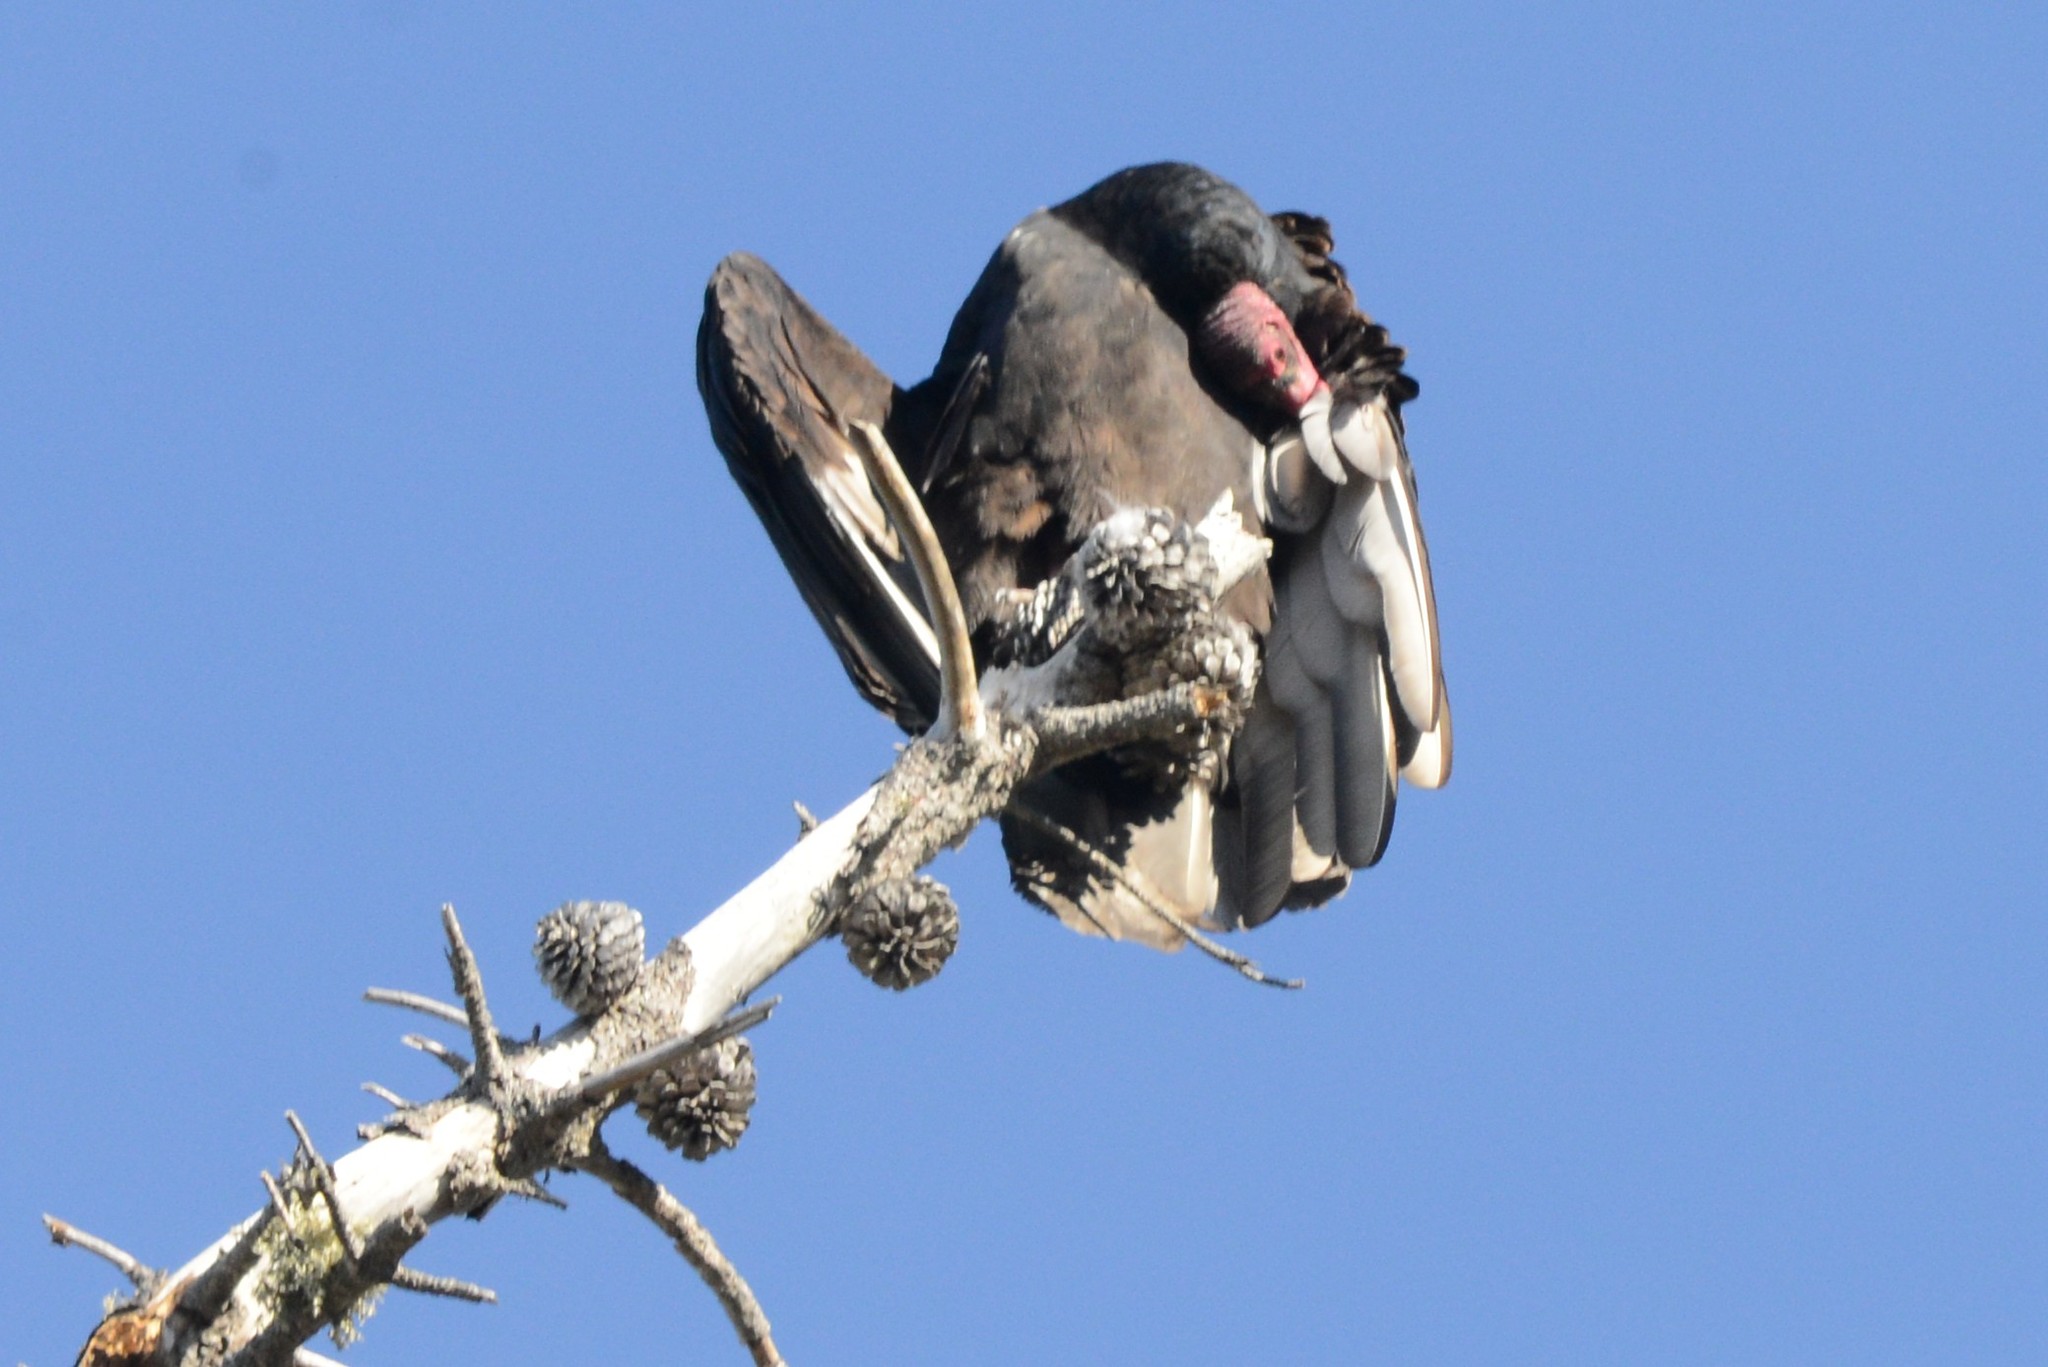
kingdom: Animalia
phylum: Chordata
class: Aves
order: Accipitriformes
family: Cathartidae
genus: Cathartes
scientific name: Cathartes aura
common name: Turkey vulture
